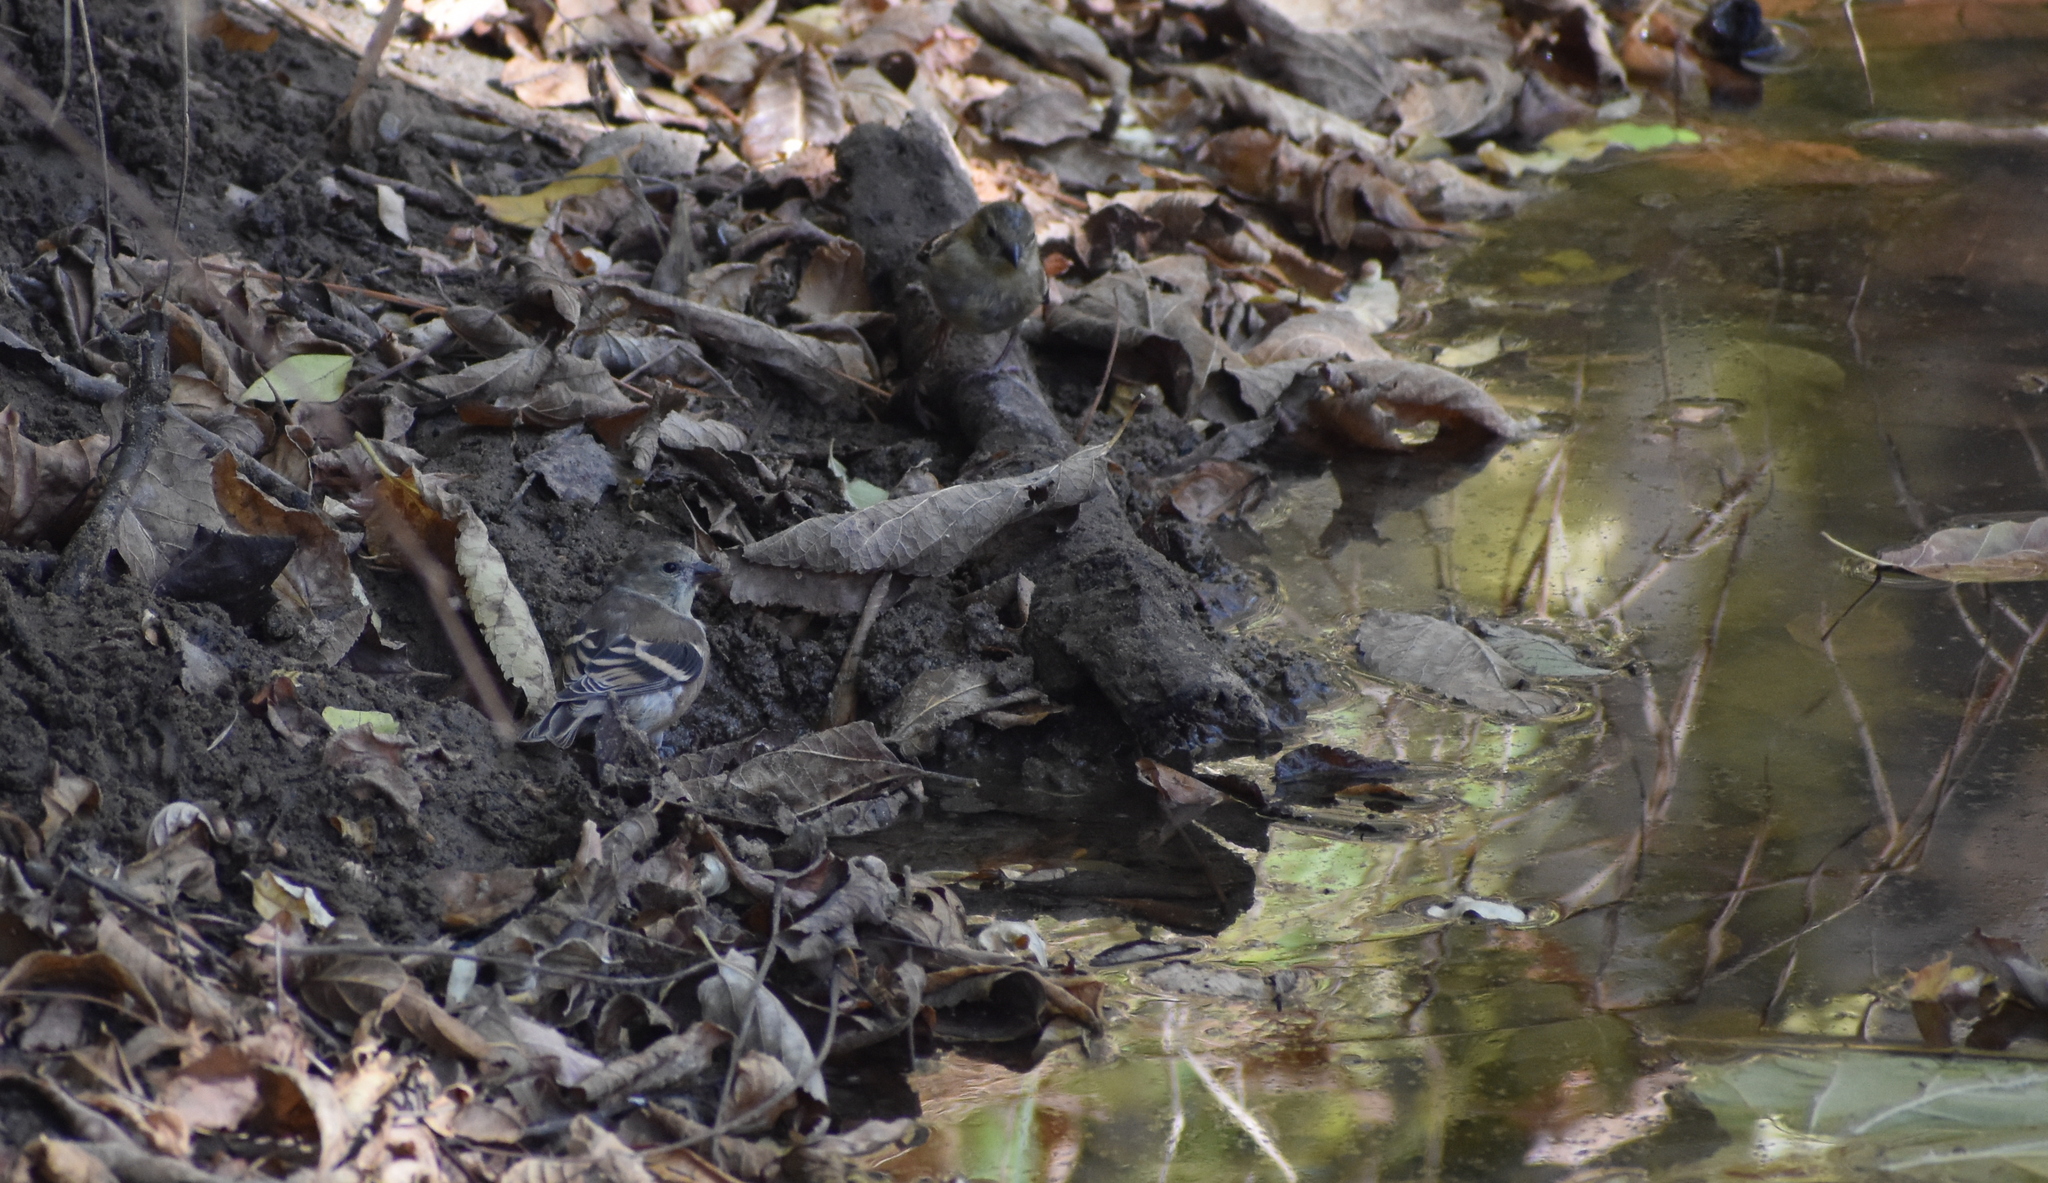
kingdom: Animalia
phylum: Chordata
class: Aves
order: Passeriformes
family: Fringillidae
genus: Spinus
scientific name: Spinus tristis
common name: American goldfinch
